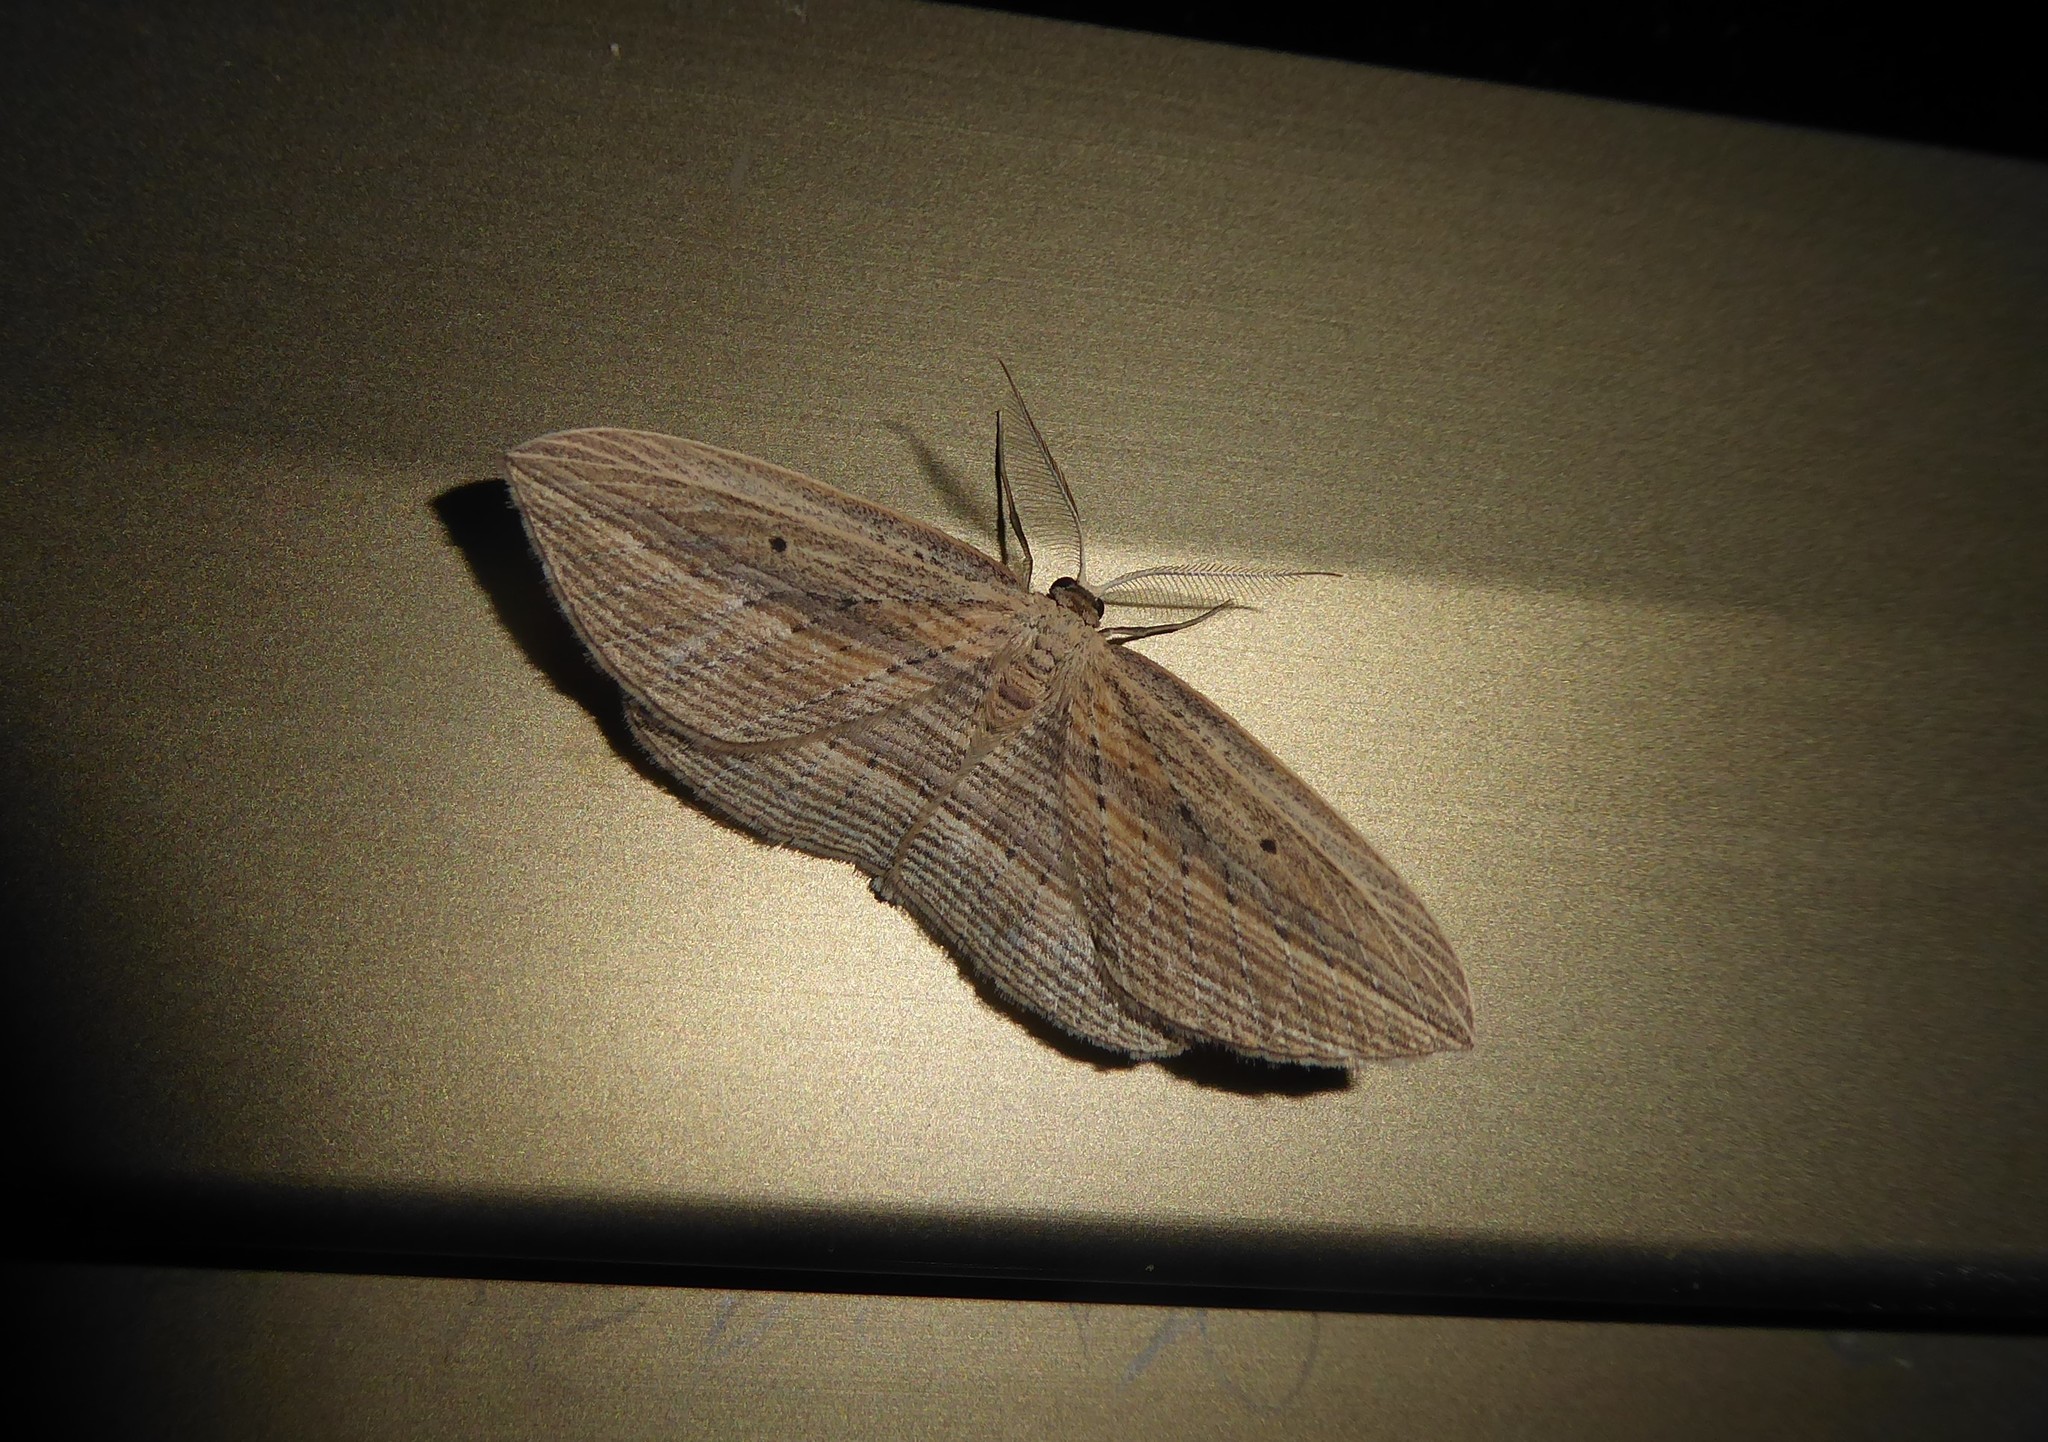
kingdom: Animalia
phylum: Arthropoda
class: Insecta
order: Lepidoptera
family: Geometridae
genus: Epiphryne
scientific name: Epiphryne verriculata
